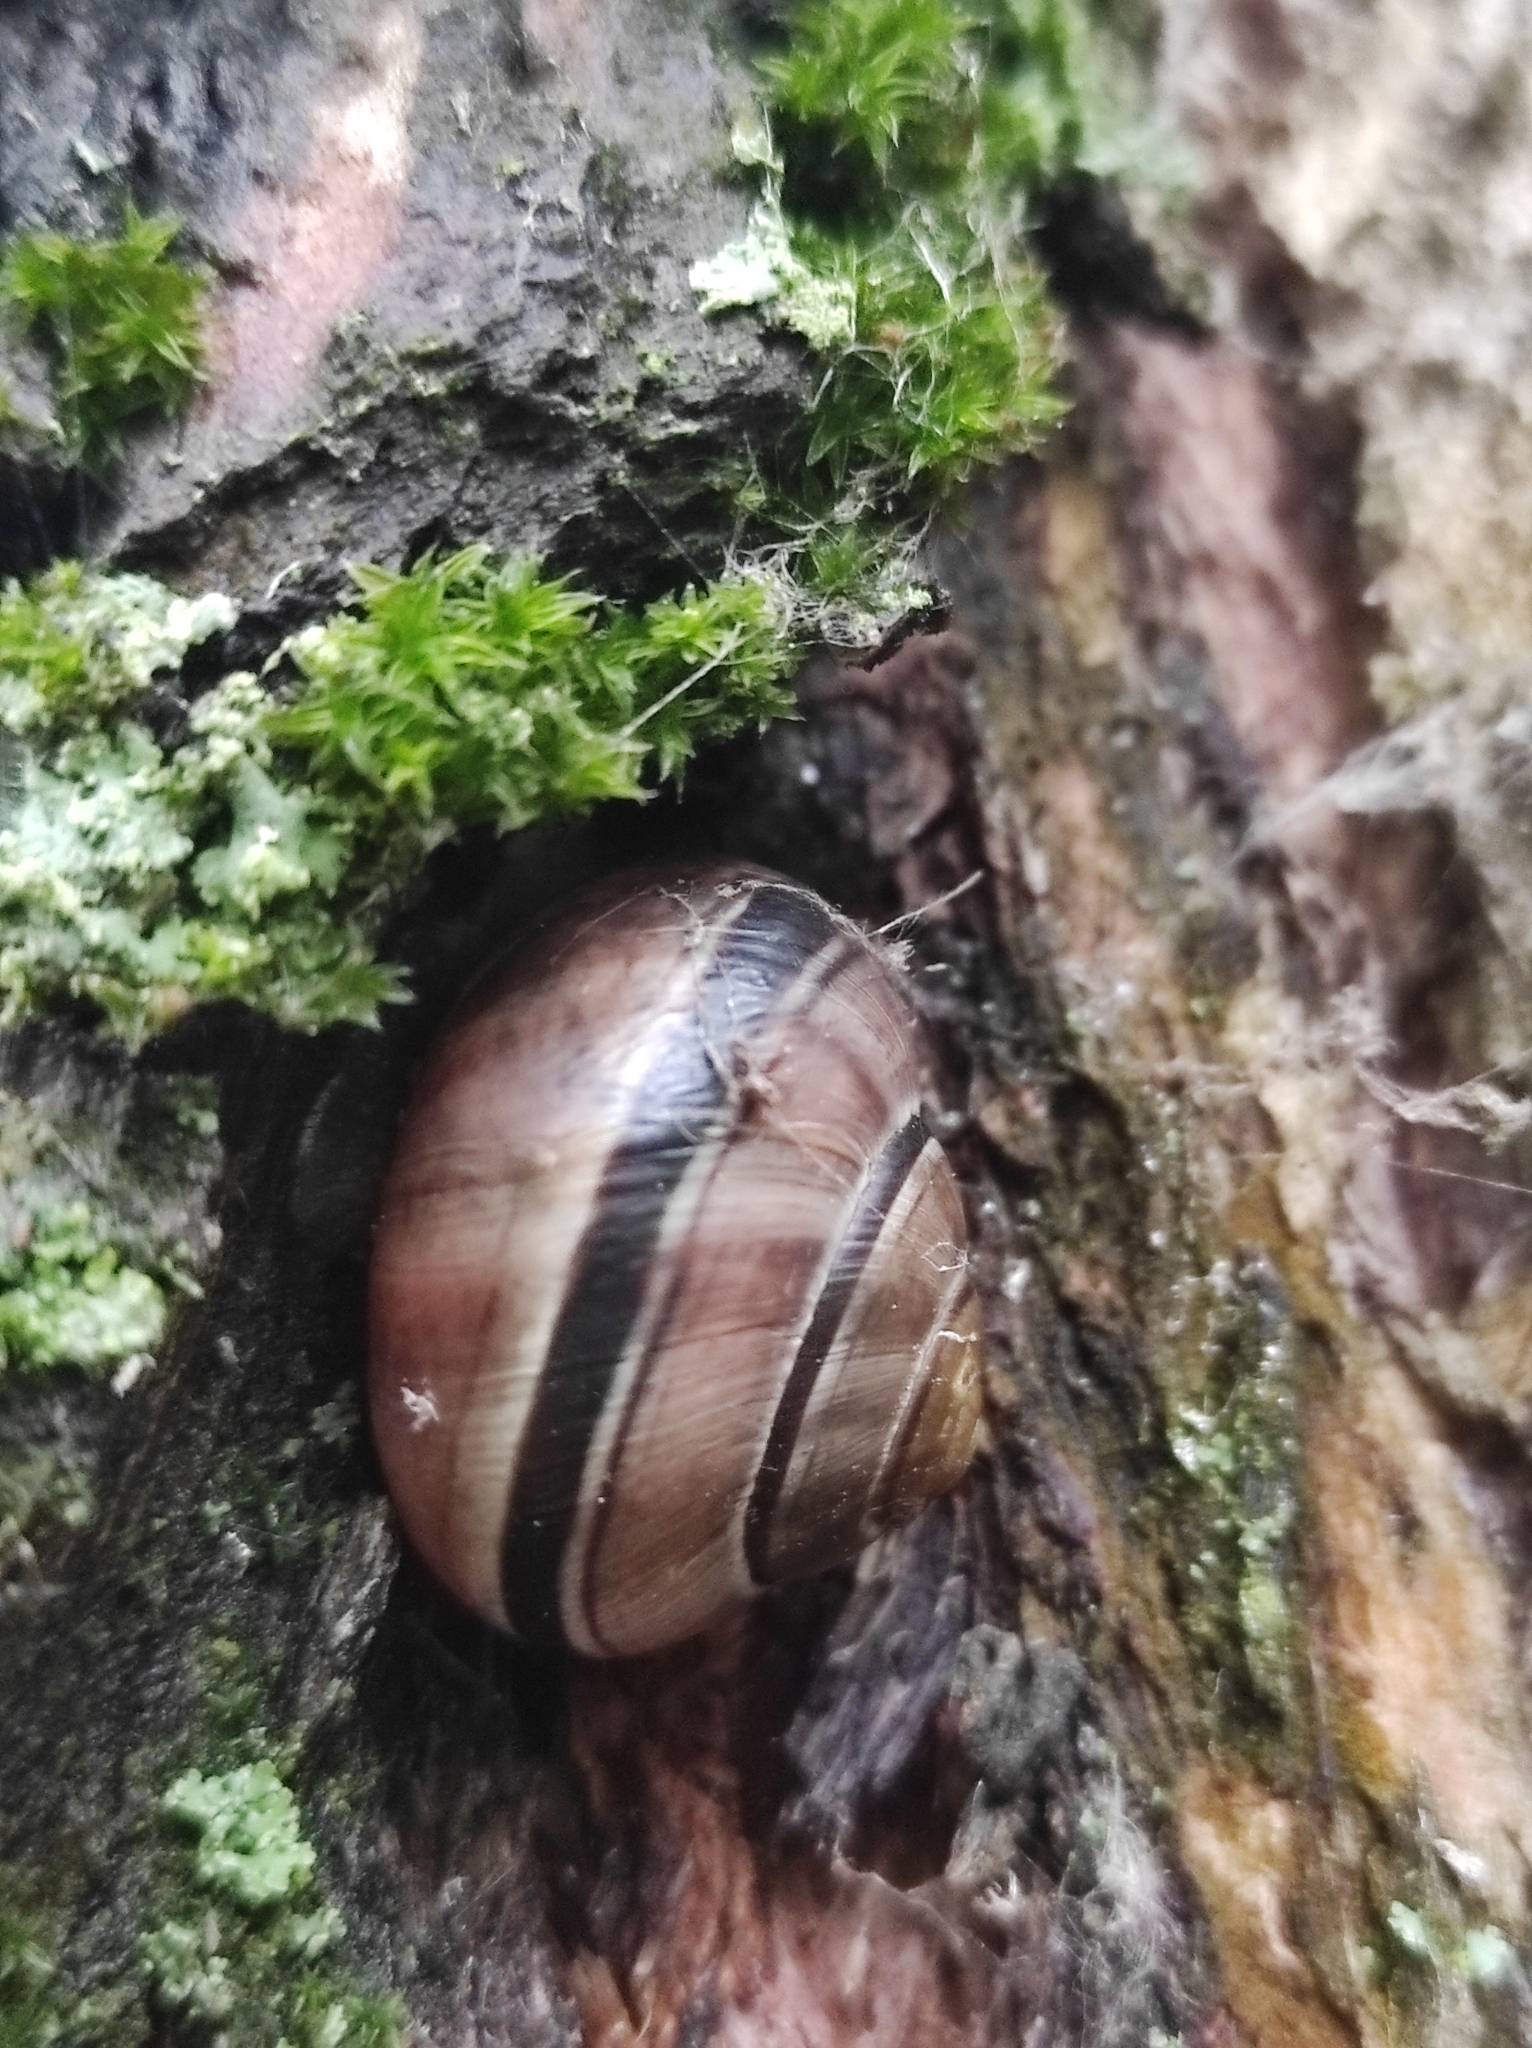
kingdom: Animalia
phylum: Mollusca
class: Gastropoda
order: Stylommatophora
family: Helicidae
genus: Cepaea
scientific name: Cepaea nemoralis
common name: Grovesnail
